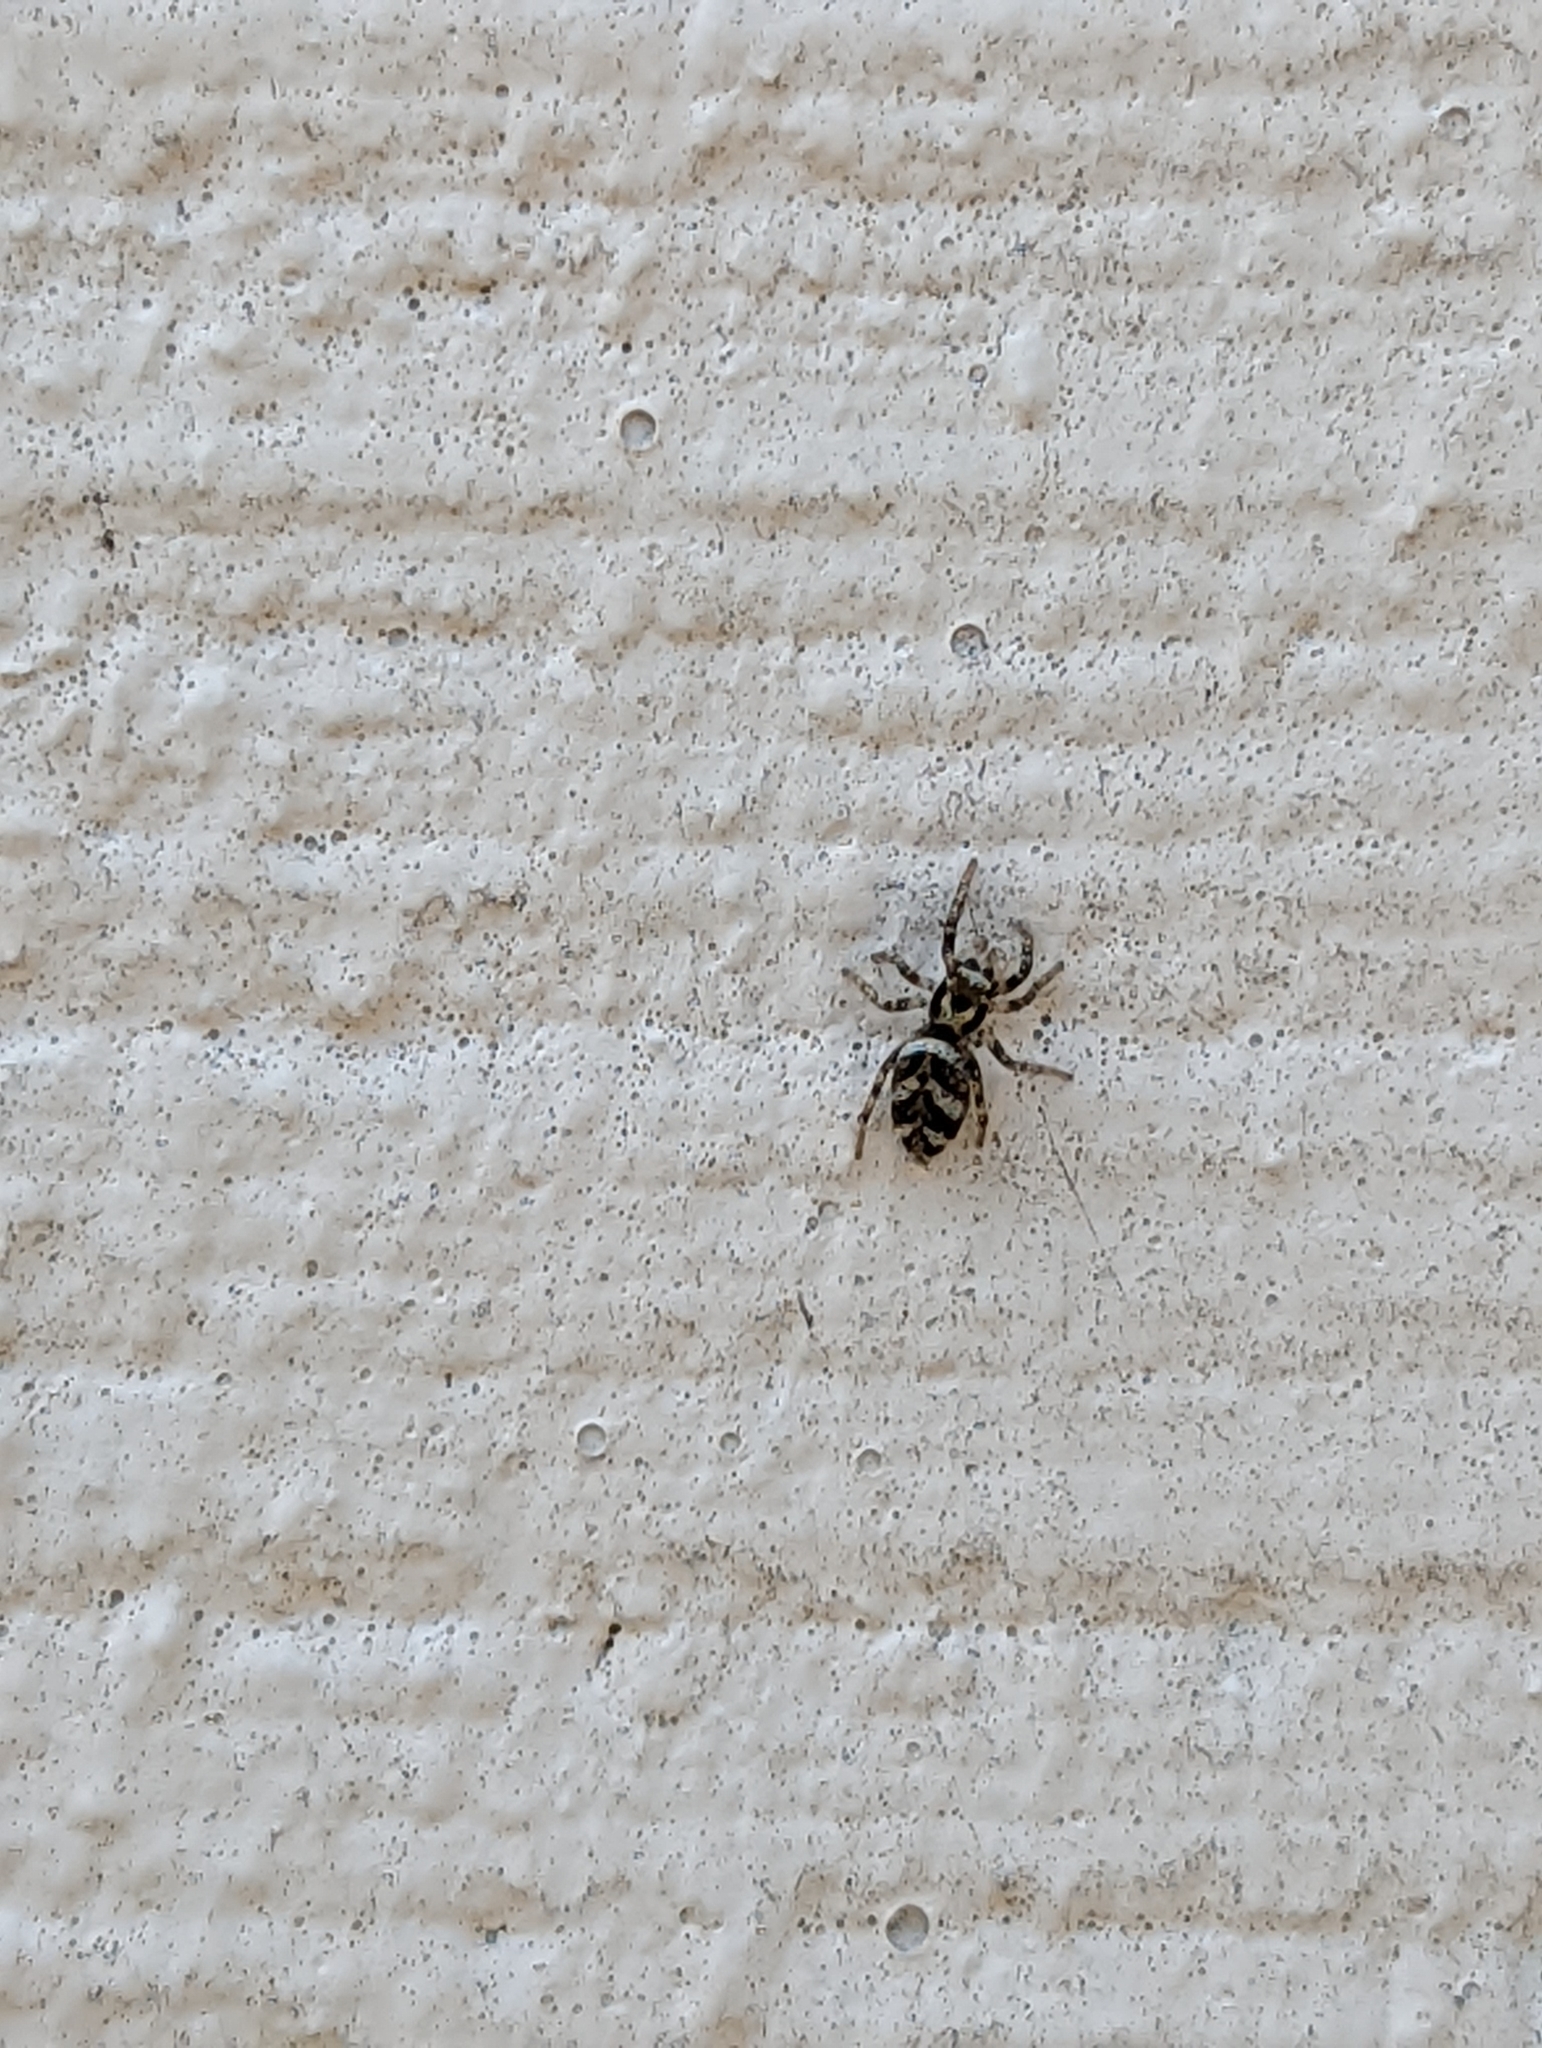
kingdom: Animalia
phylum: Arthropoda
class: Arachnida
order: Araneae
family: Salticidae
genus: Salticus
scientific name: Salticus scenicus
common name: Zebra jumper
